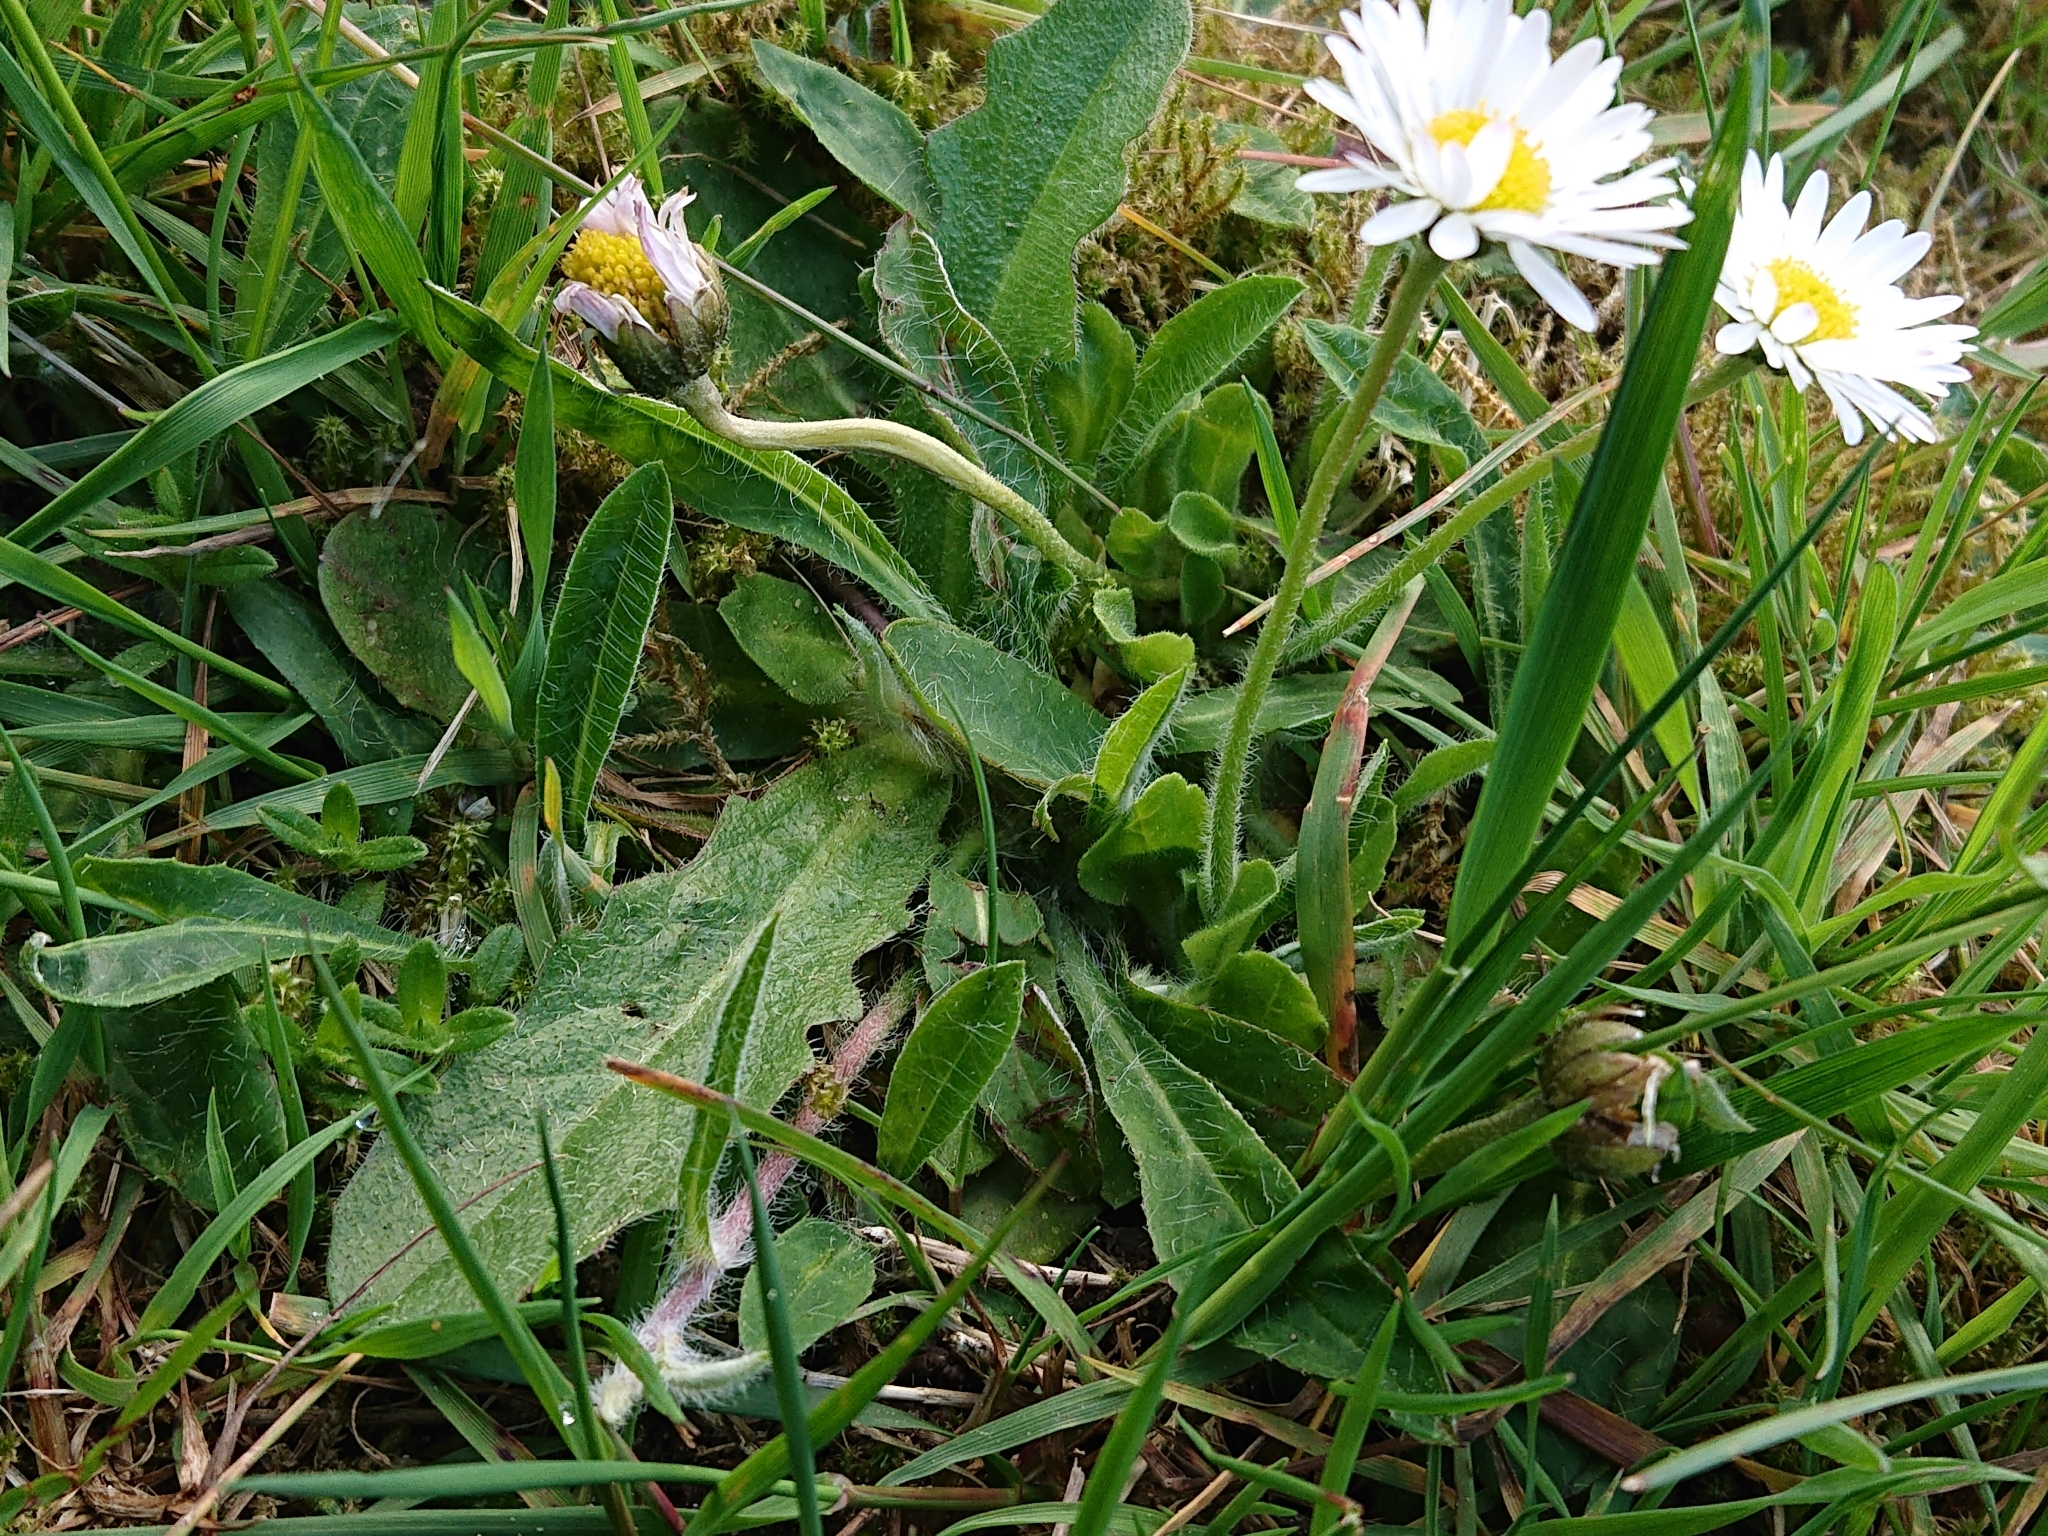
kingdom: Plantae
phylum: Tracheophyta
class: Magnoliopsida
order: Asterales
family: Asteraceae
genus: Bellis
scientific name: Bellis perennis
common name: Lawndaisy
